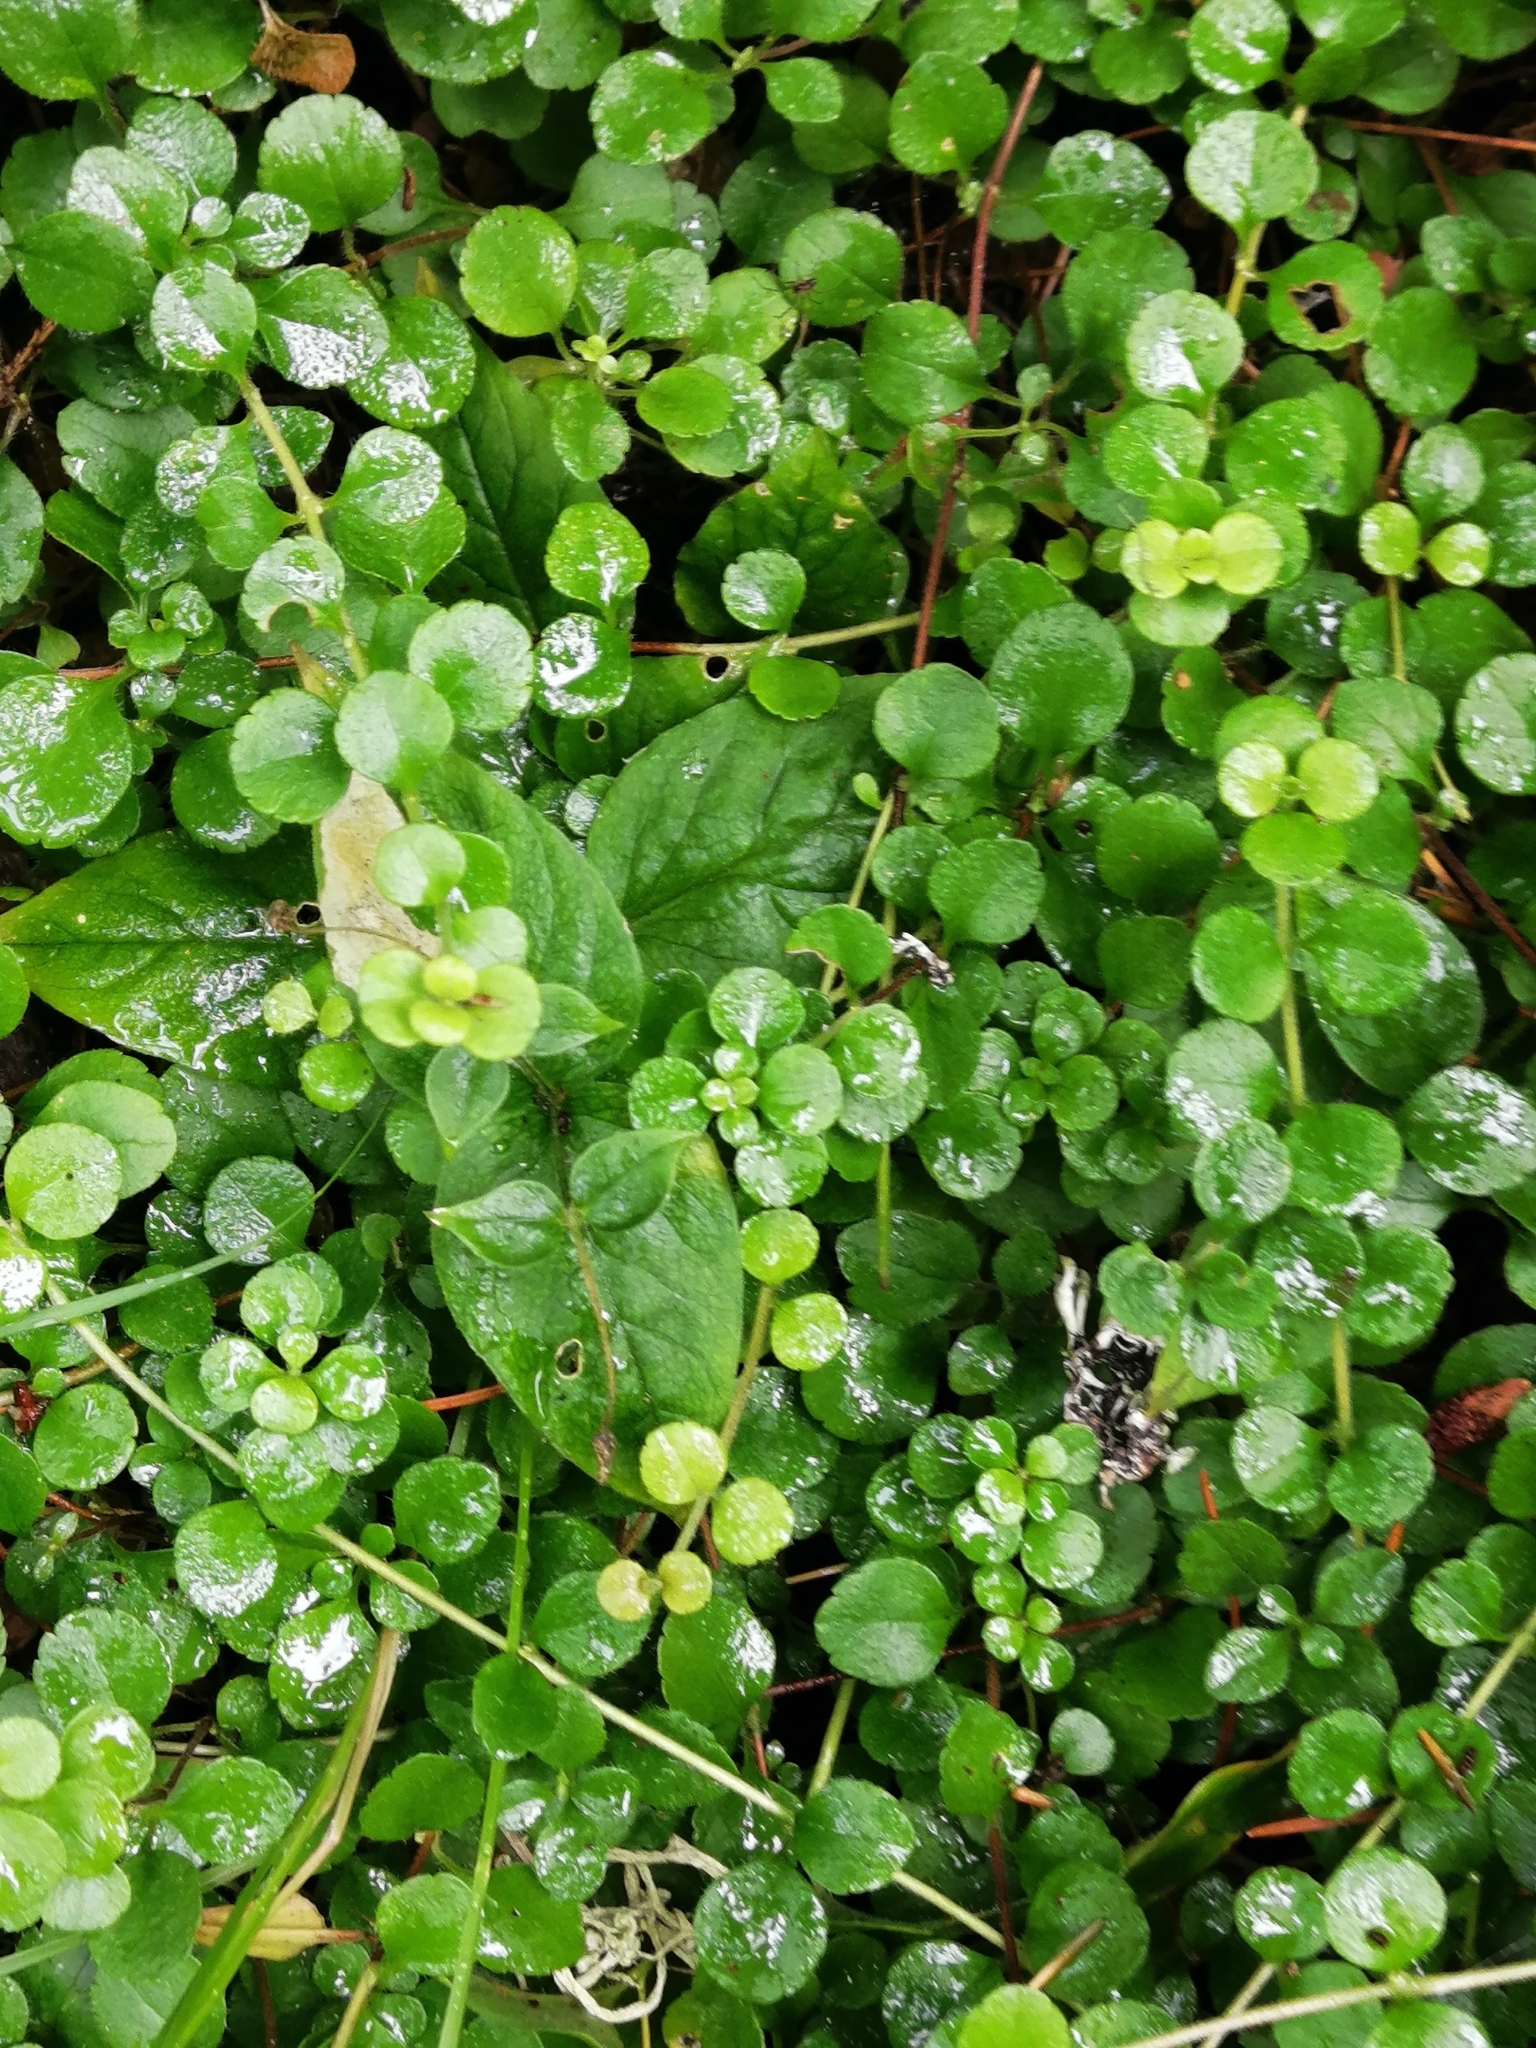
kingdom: Plantae
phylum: Tracheophyta
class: Magnoliopsida
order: Dipsacales
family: Caprifoliaceae
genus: Linnaea
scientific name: Linnaea borealis
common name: Twinflower
